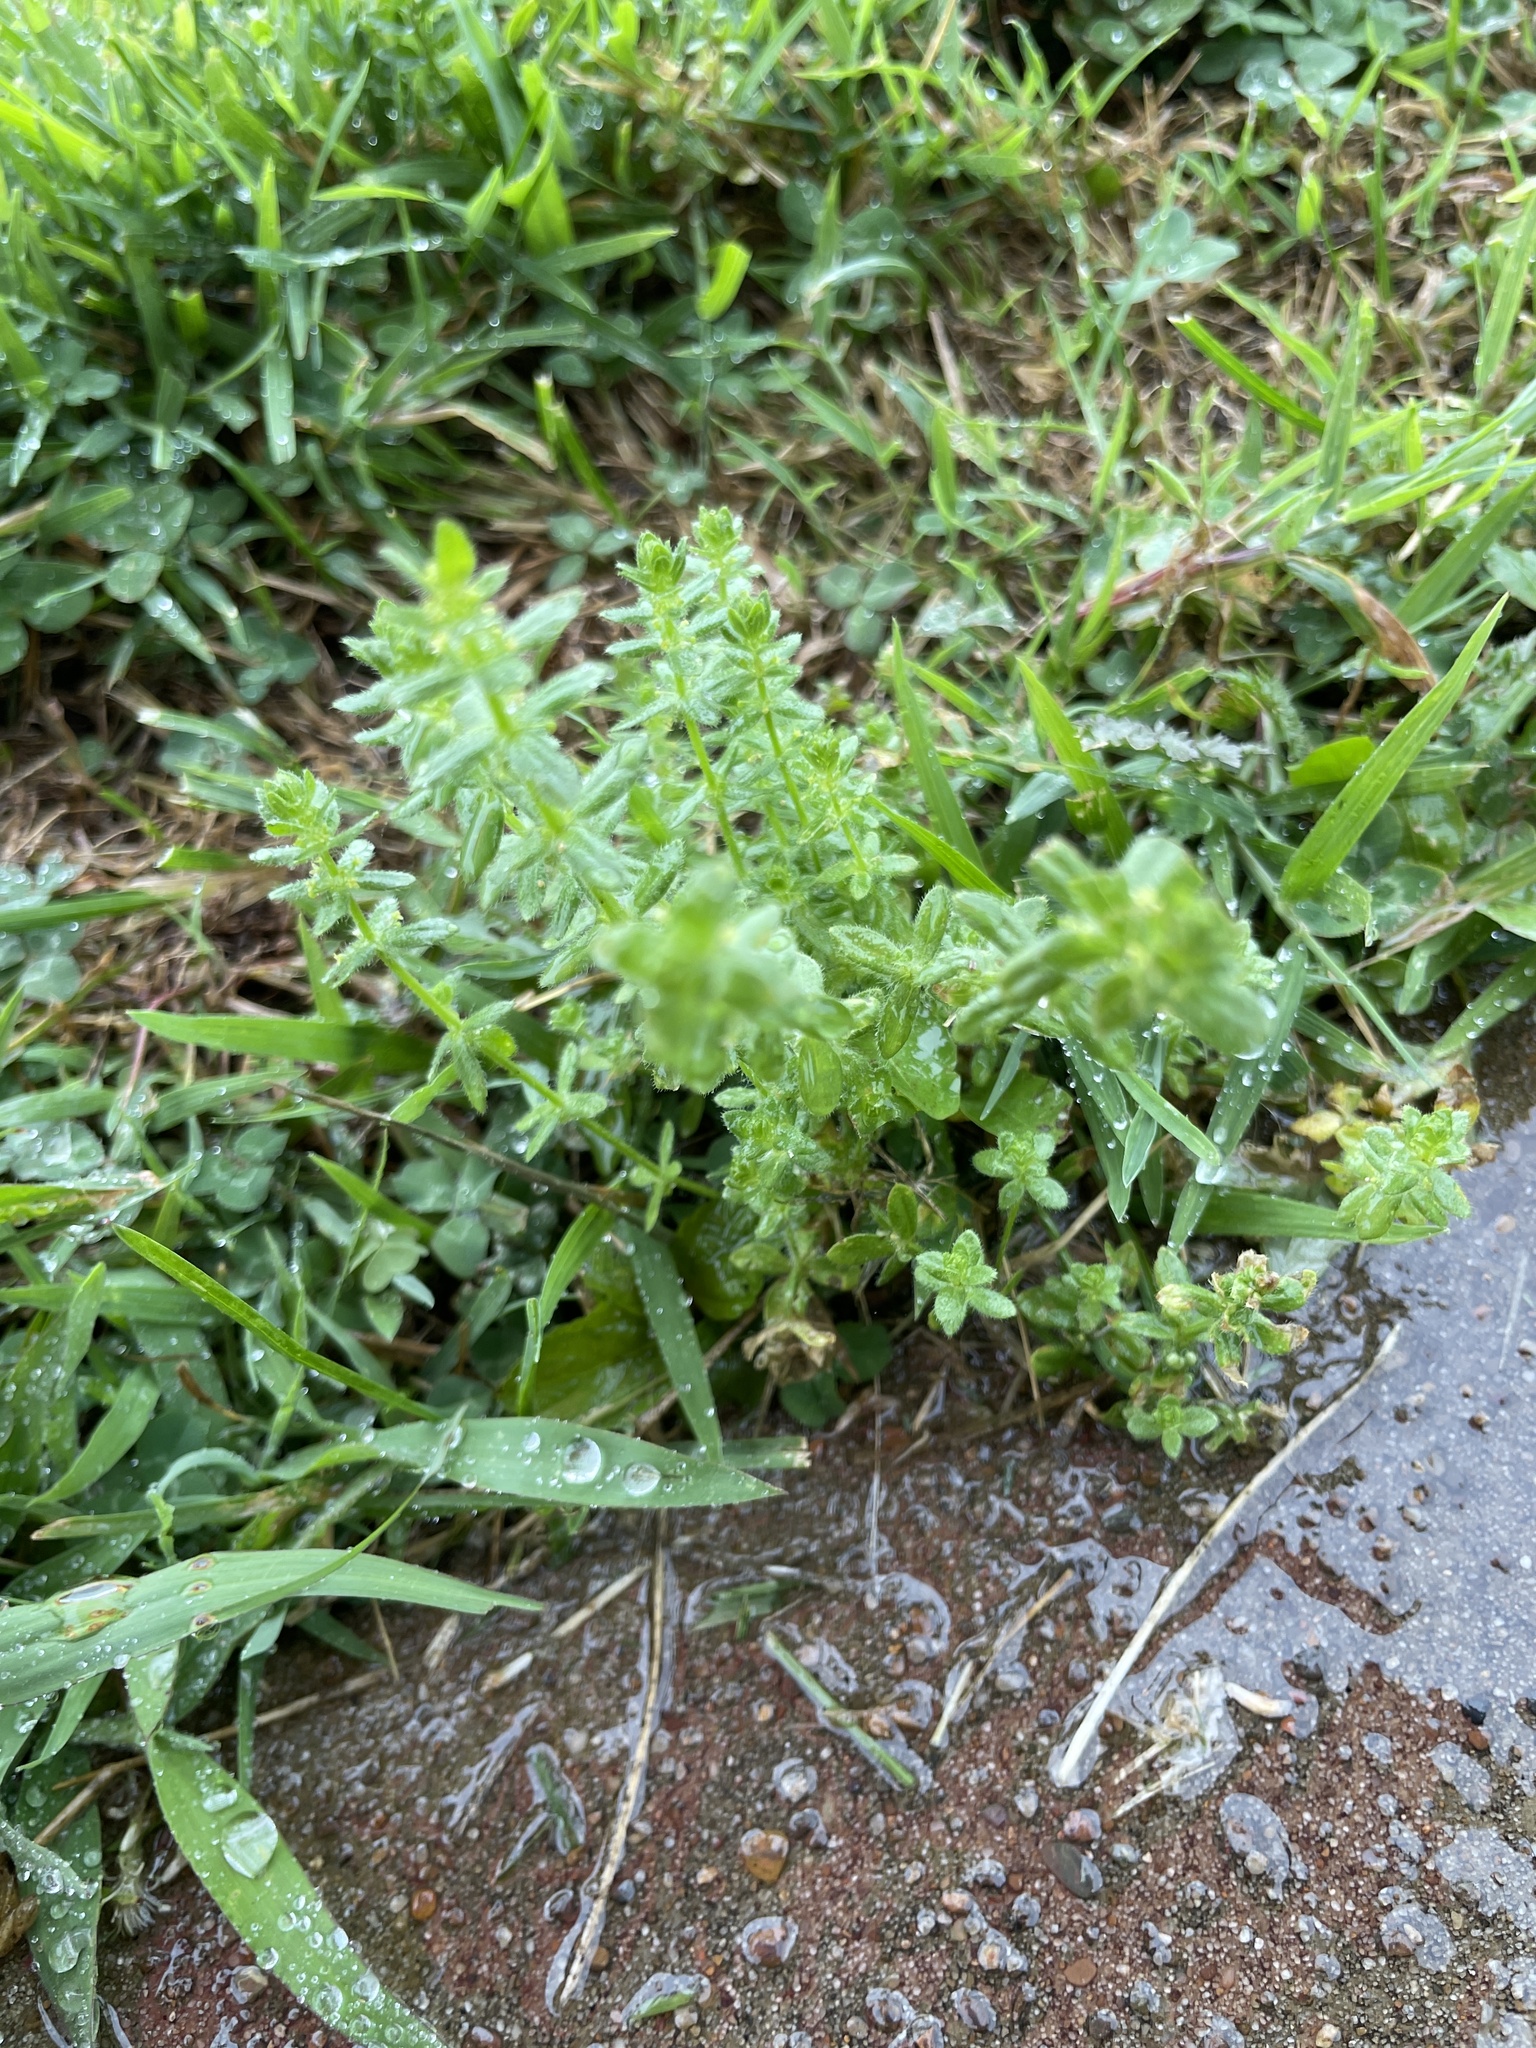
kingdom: Plantae
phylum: Tracheophyta
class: Magnoliopsida
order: Gentianales
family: Rubiaceae
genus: Cruciata
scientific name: Cruciata pedemontana
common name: Piedmont bedstraw
